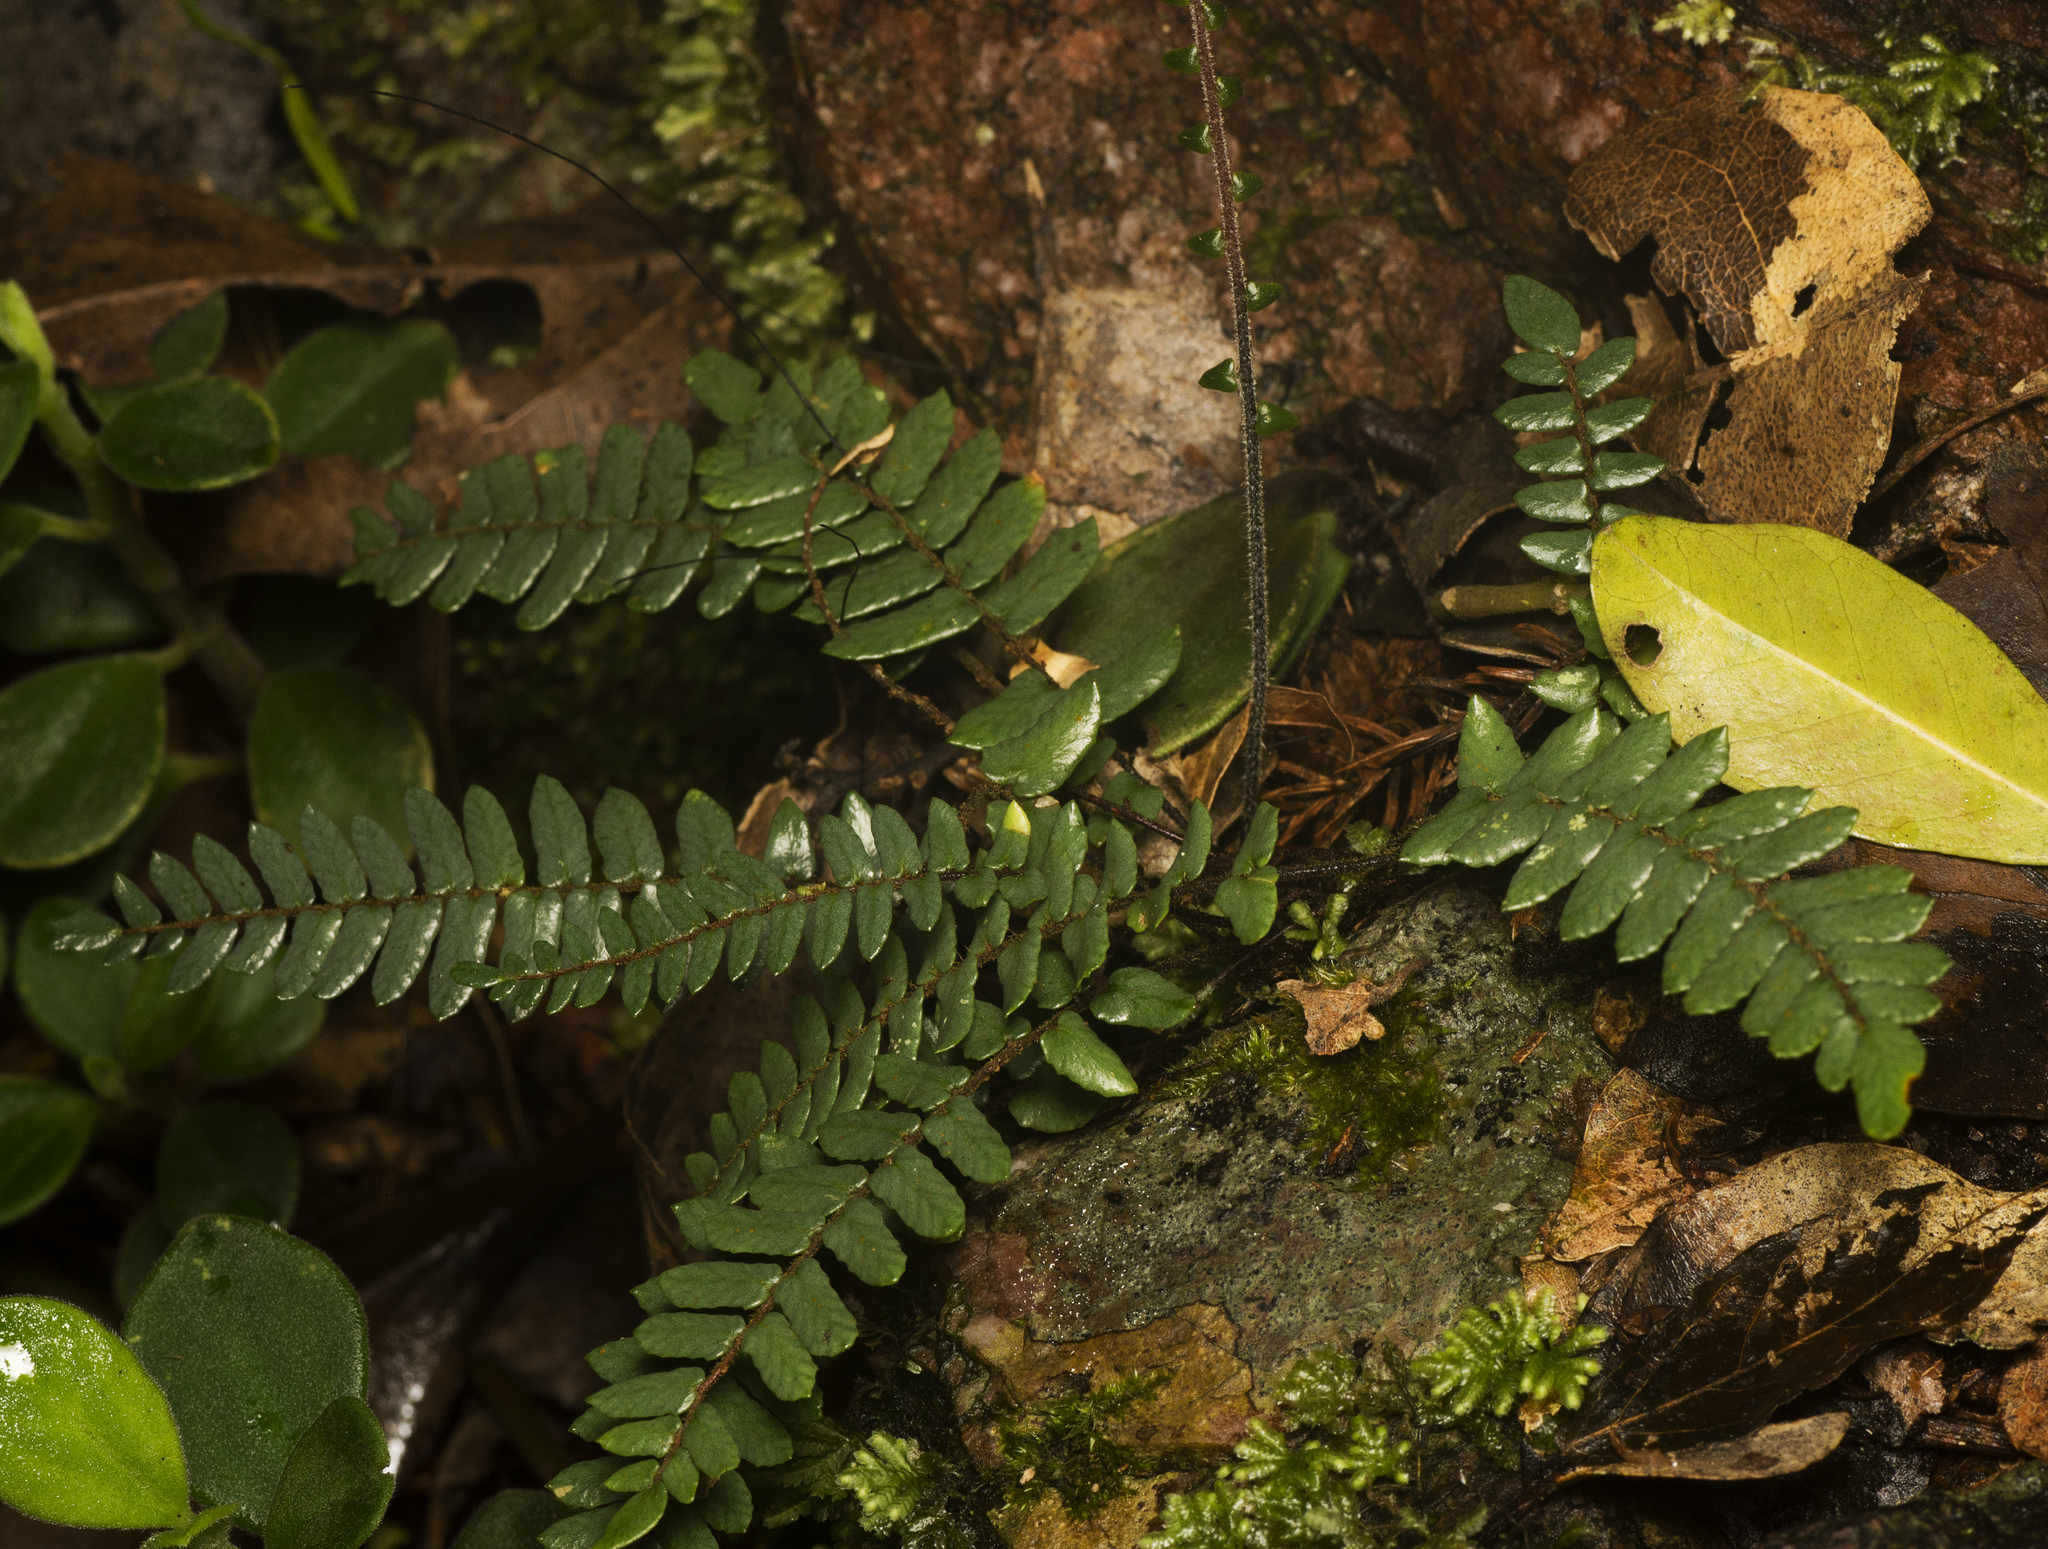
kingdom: Plantae
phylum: Tracheophyta
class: Polypodiopsida
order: Polypodiales
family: Pteridaceae
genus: Pellaea
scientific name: Pellaea nana
